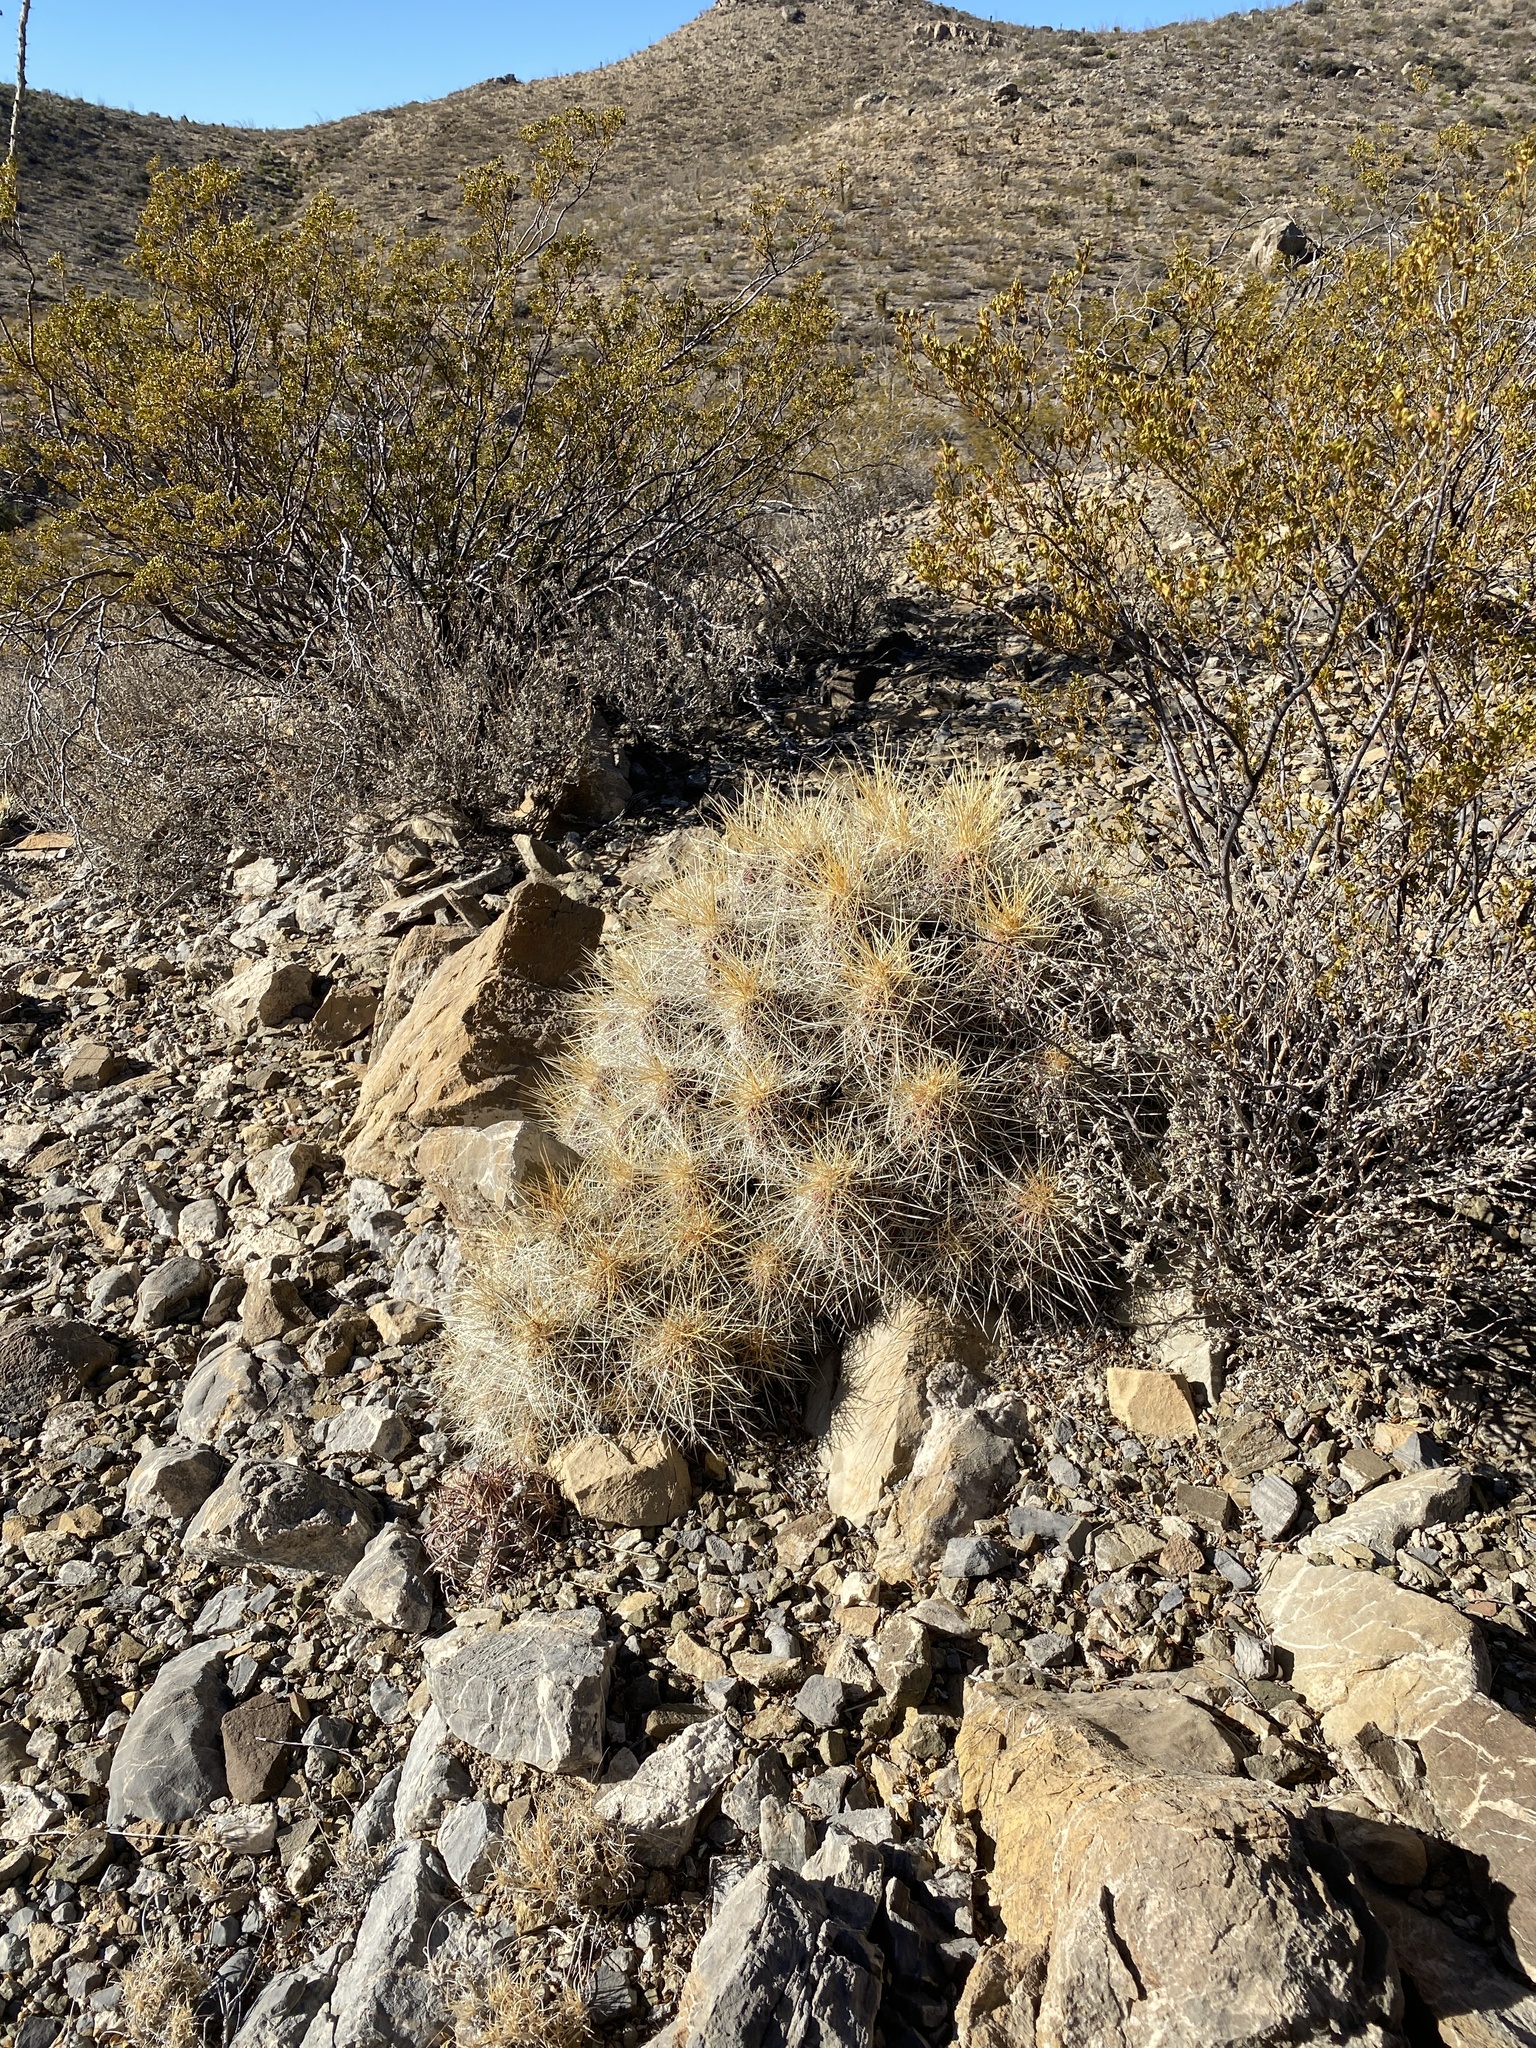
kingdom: Plantae
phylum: Tracheophyta
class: Magnoliopsida
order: Caryophyllales
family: Cactaceae
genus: Echinocereus
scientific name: Echinocereus stramineus
